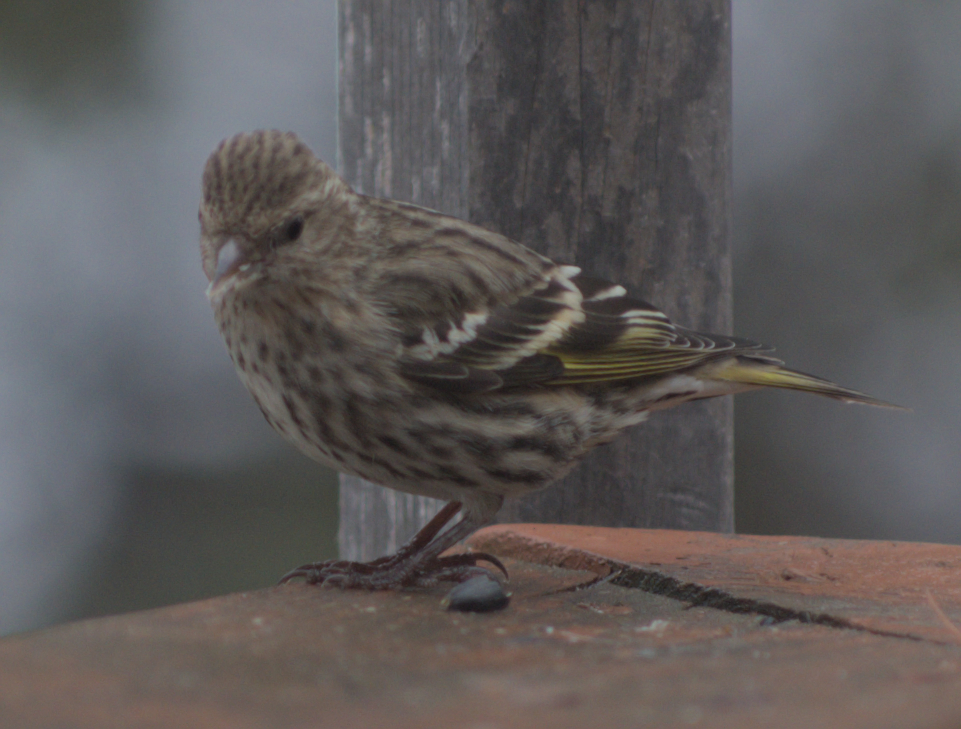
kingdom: Animalia
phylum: Chordata
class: Aves
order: Passeriformes
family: Fringillidae
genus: Spinus
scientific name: Spinus pinus
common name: Pine siskin
